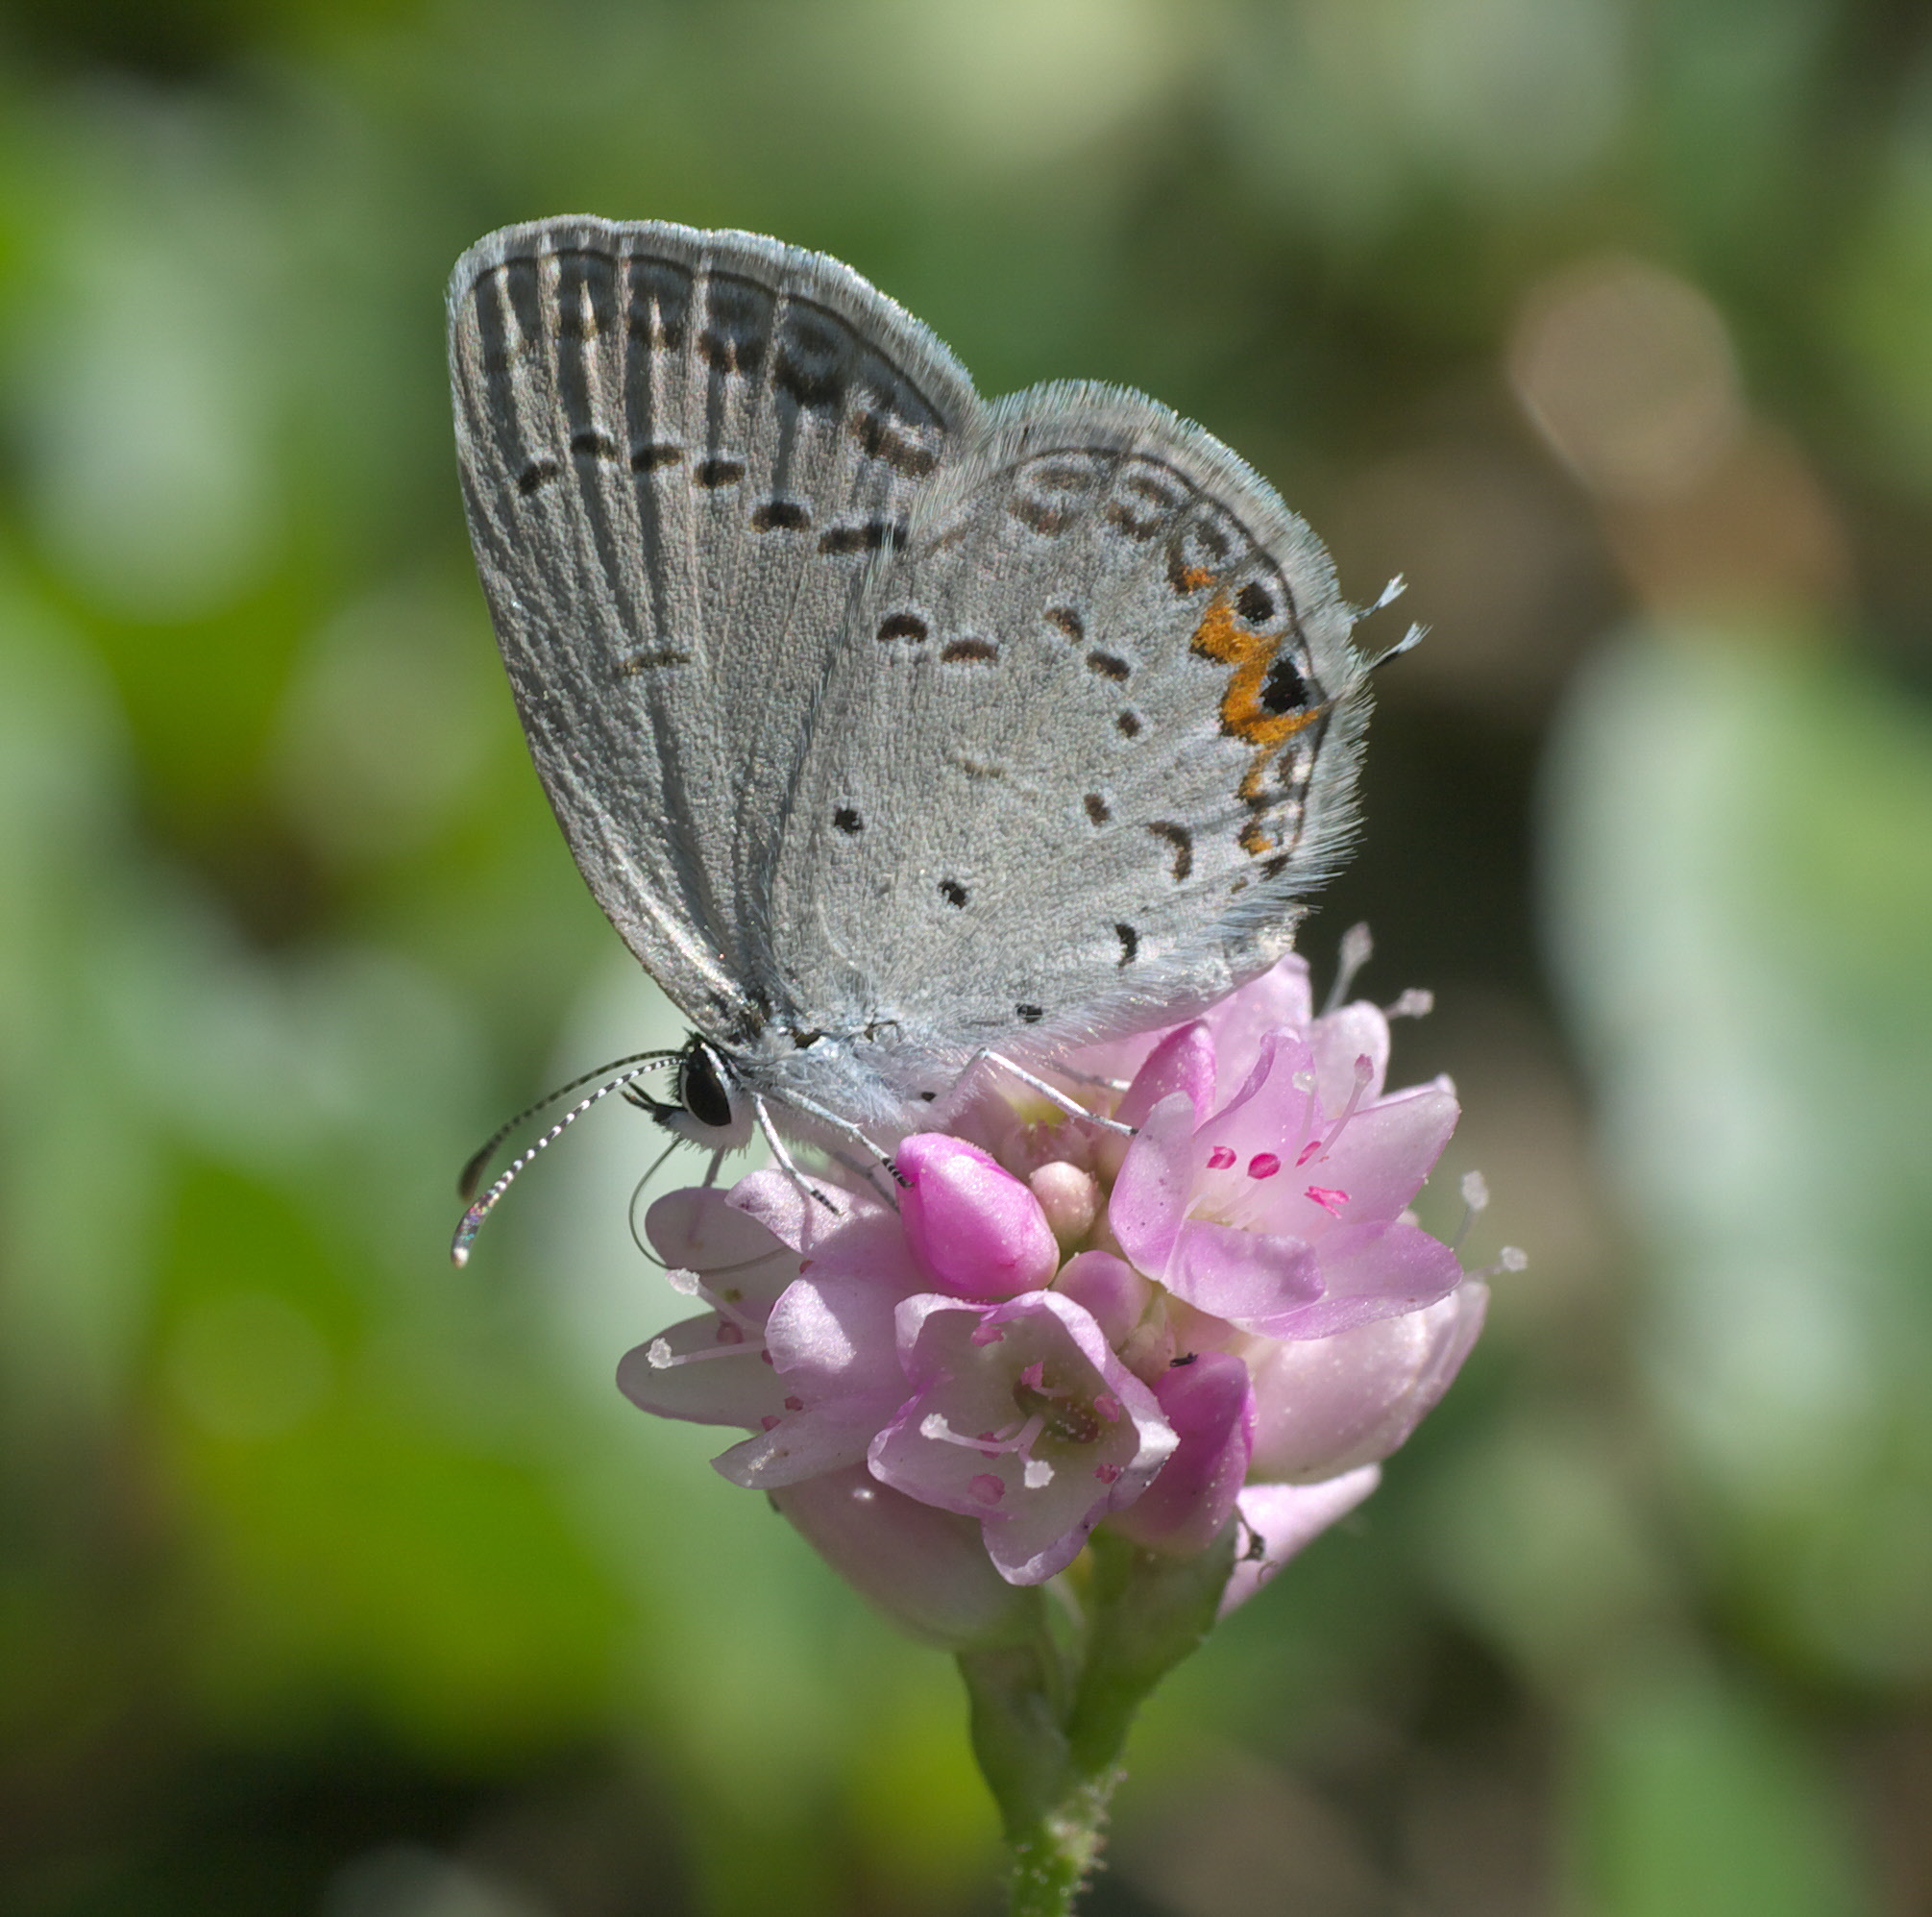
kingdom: Animalia
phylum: Arthropoda
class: Insecta
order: Lepidoptera
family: Lycaenidae
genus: Elkalyce
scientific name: Elkalyce comyntas
